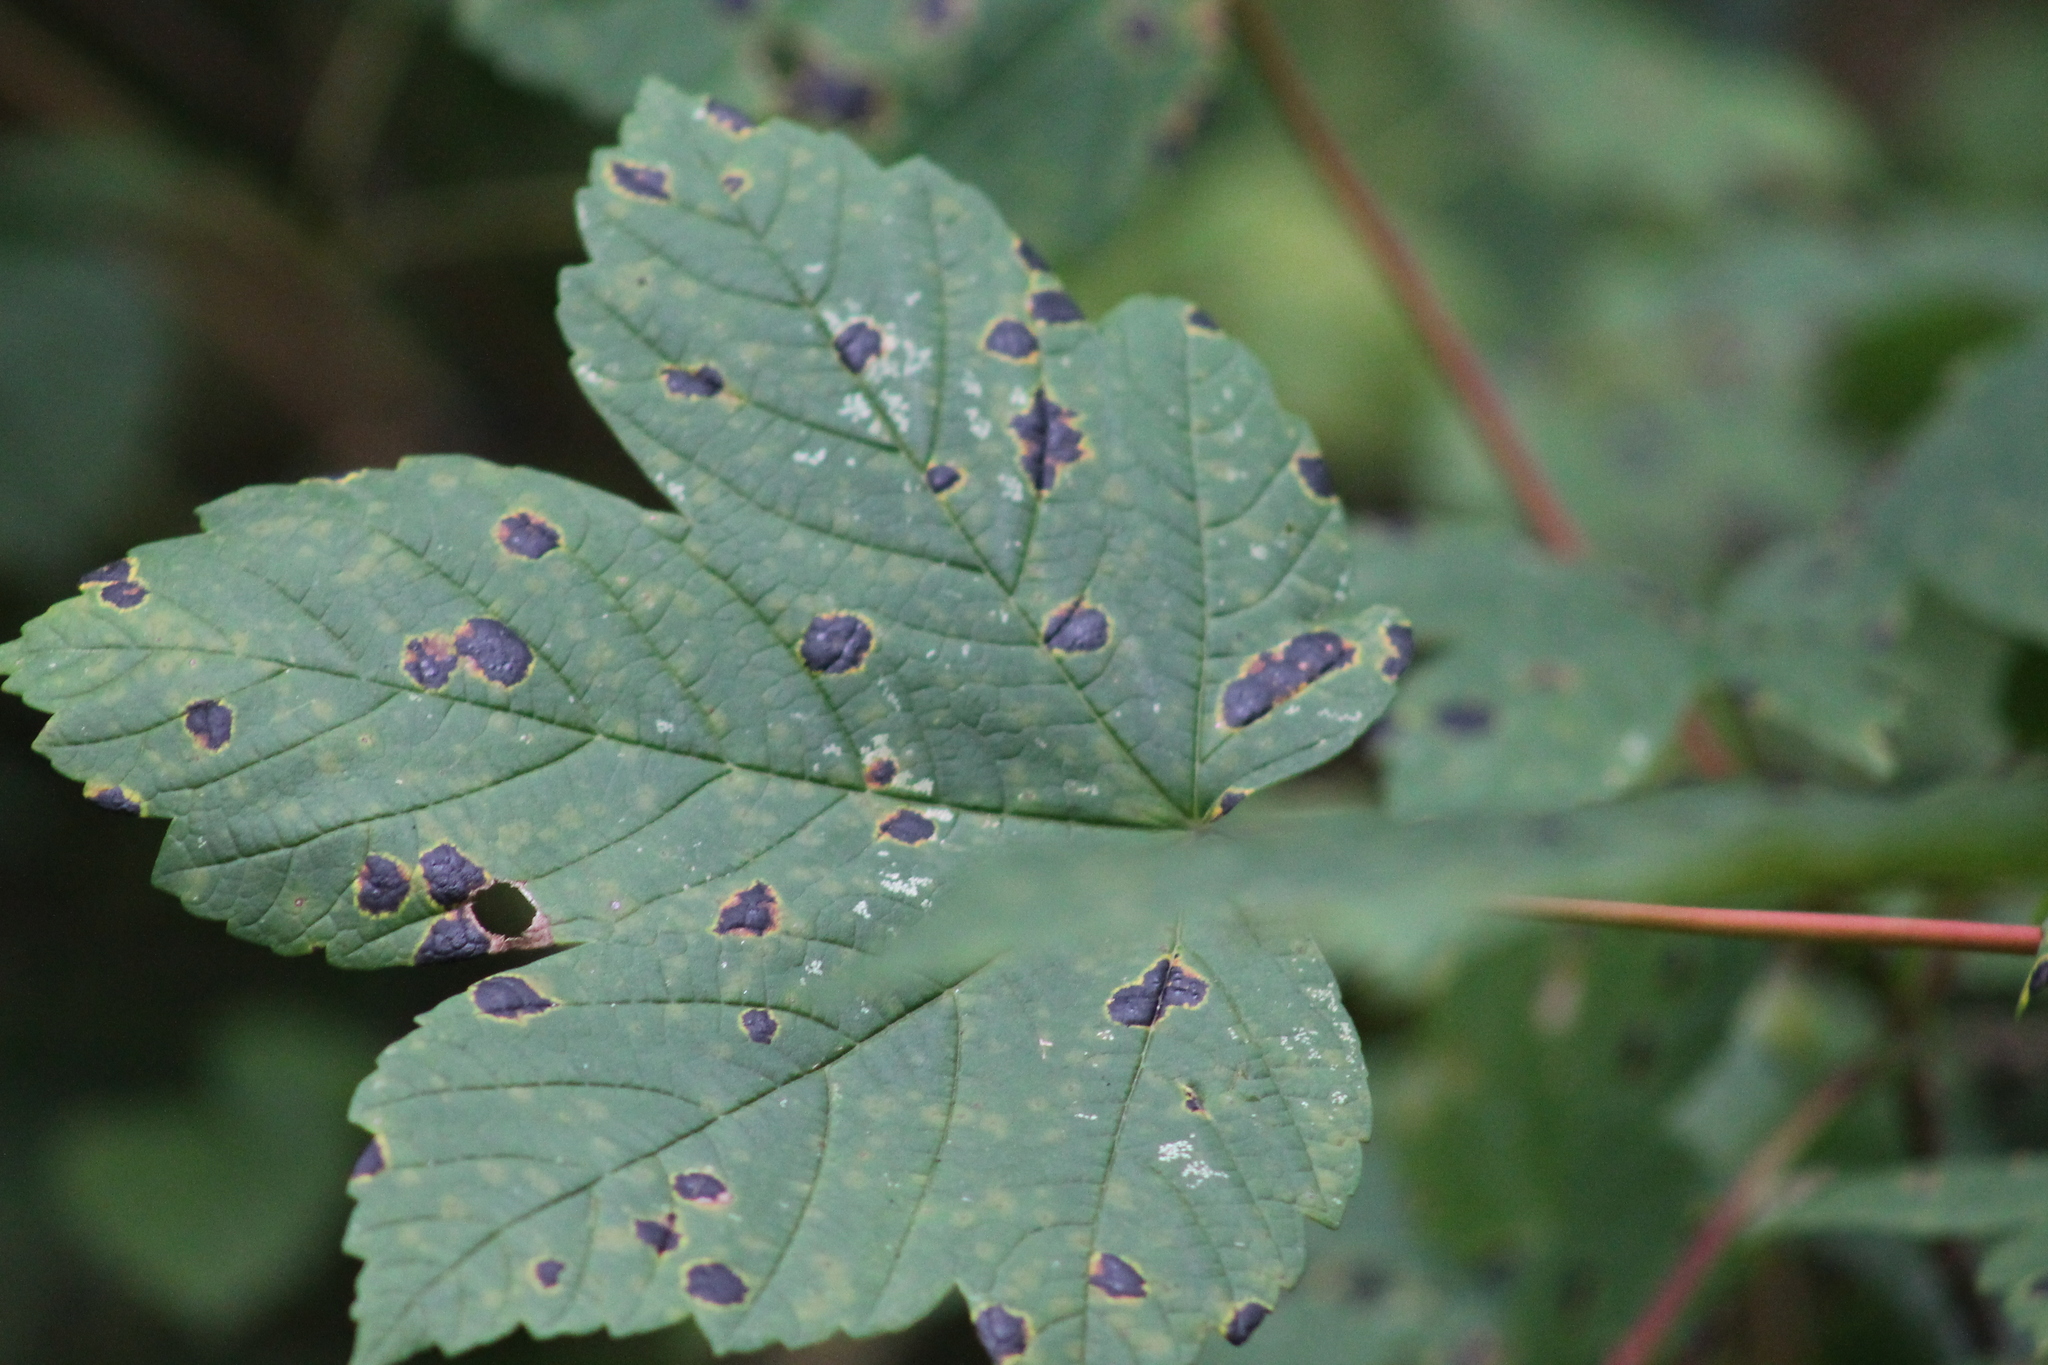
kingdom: Fungi
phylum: Ascomycota
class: Leotiomycetes
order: Rhytismatales
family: Rhytismataceae
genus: Rhytisma
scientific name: Rhytisma acerinum
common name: European tar spot
